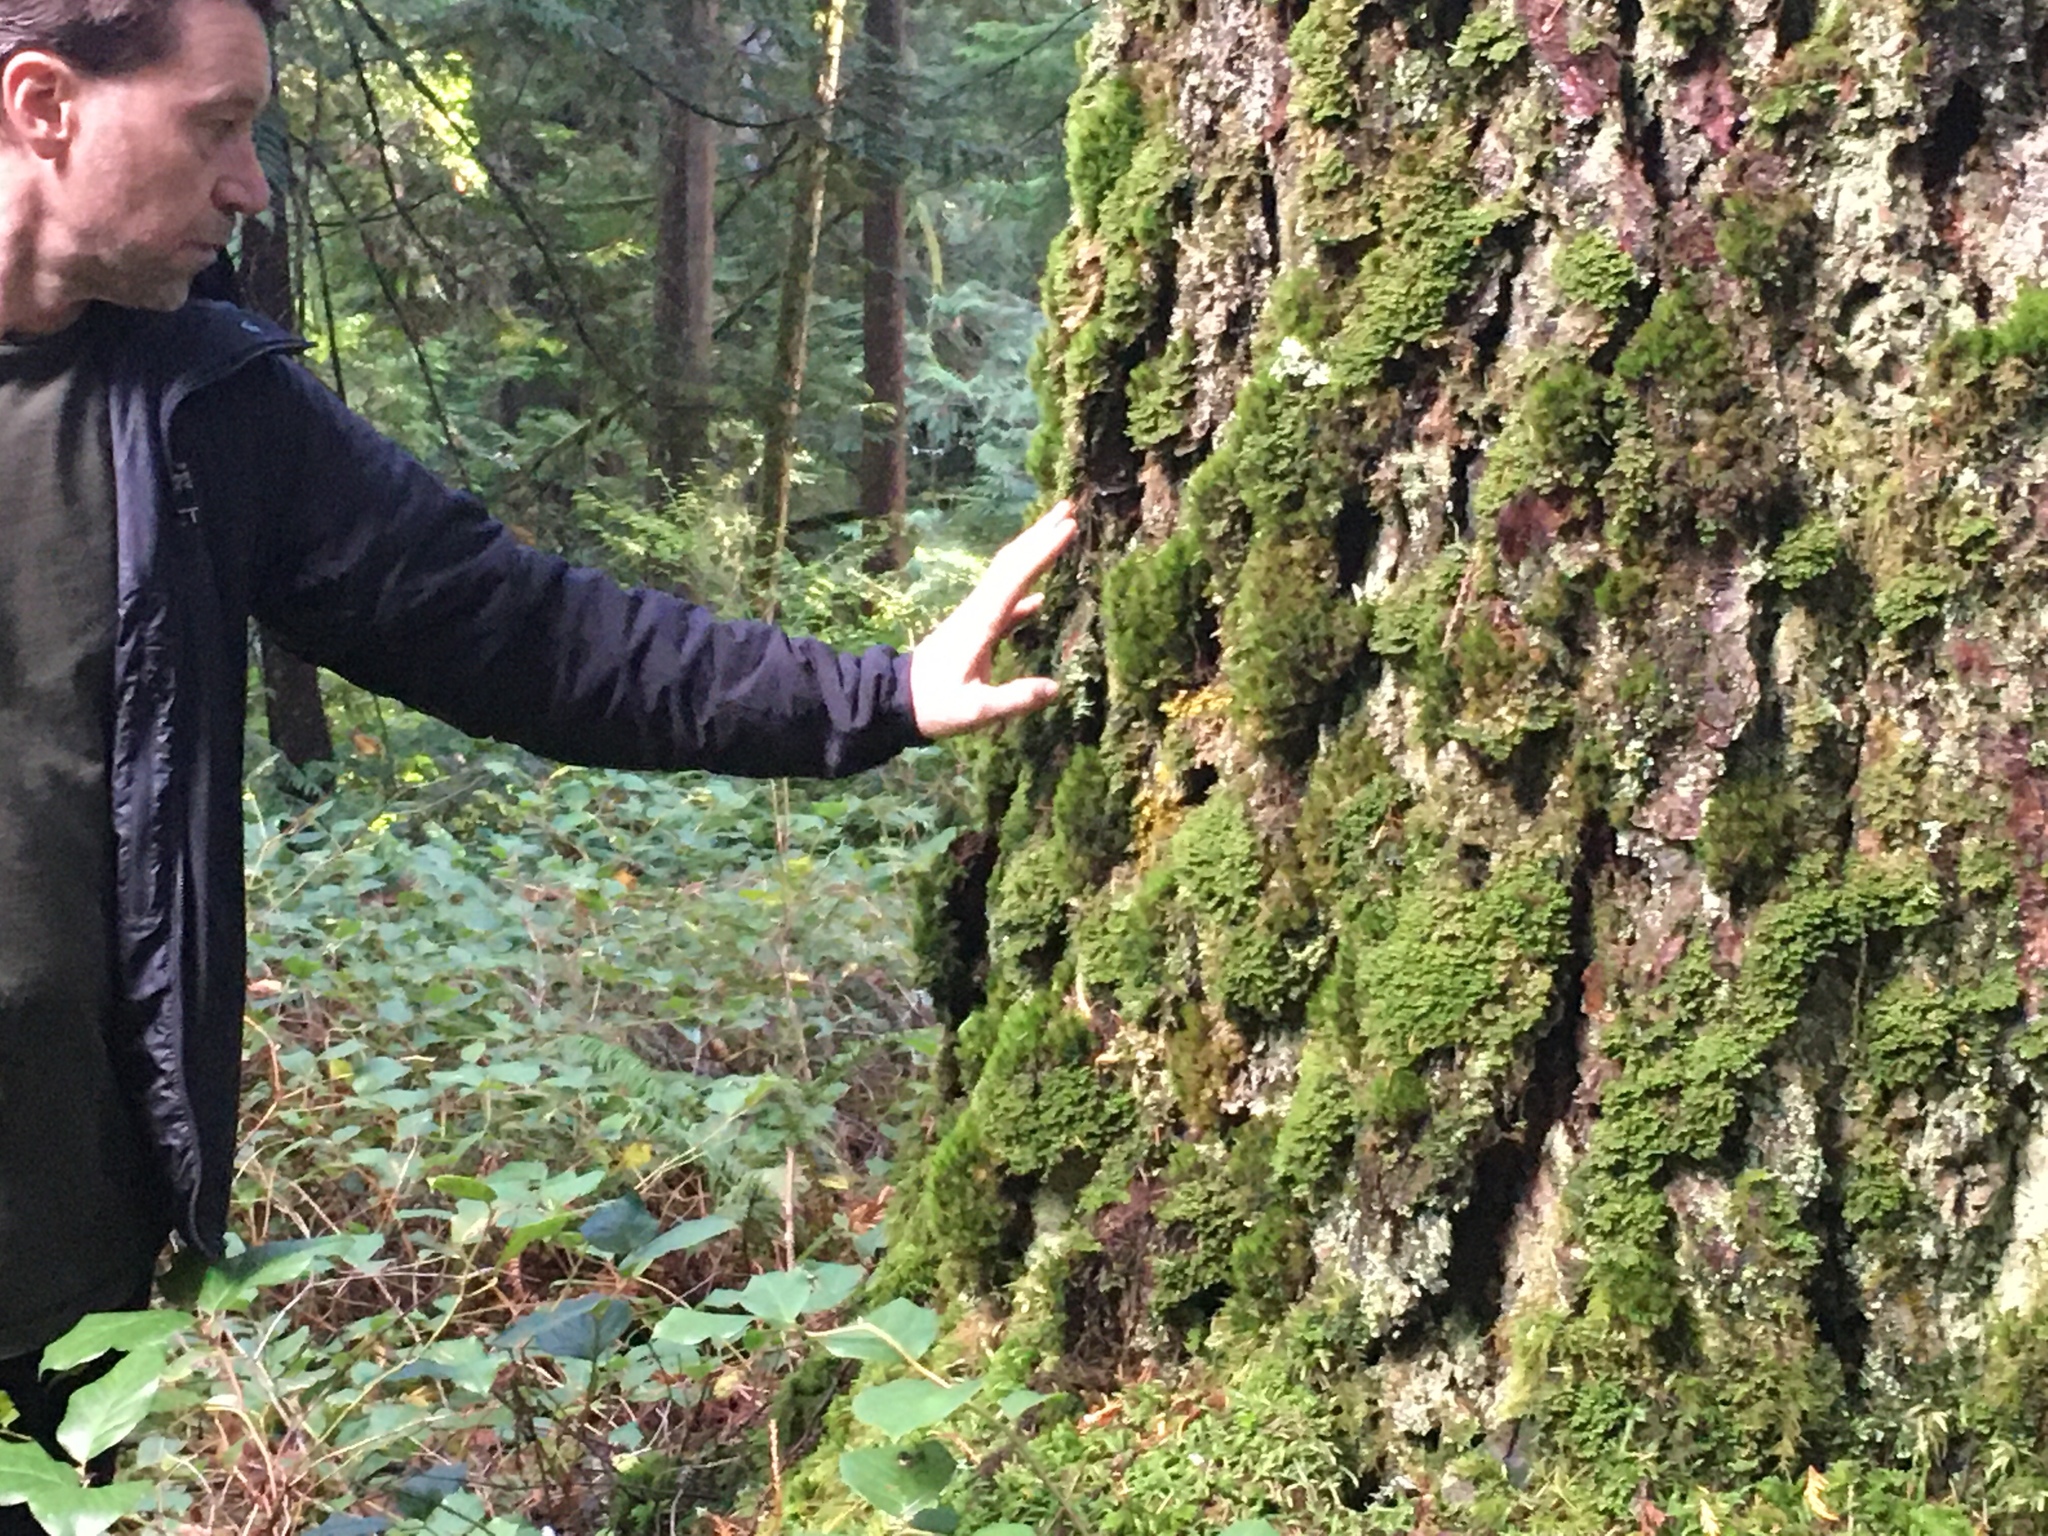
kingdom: Plantae
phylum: Tracheophyta
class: Pinopsida
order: Pinales
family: Pinaceae
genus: Pseudotsuga
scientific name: Pseudotsuga menziesii
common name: Douglas fir
